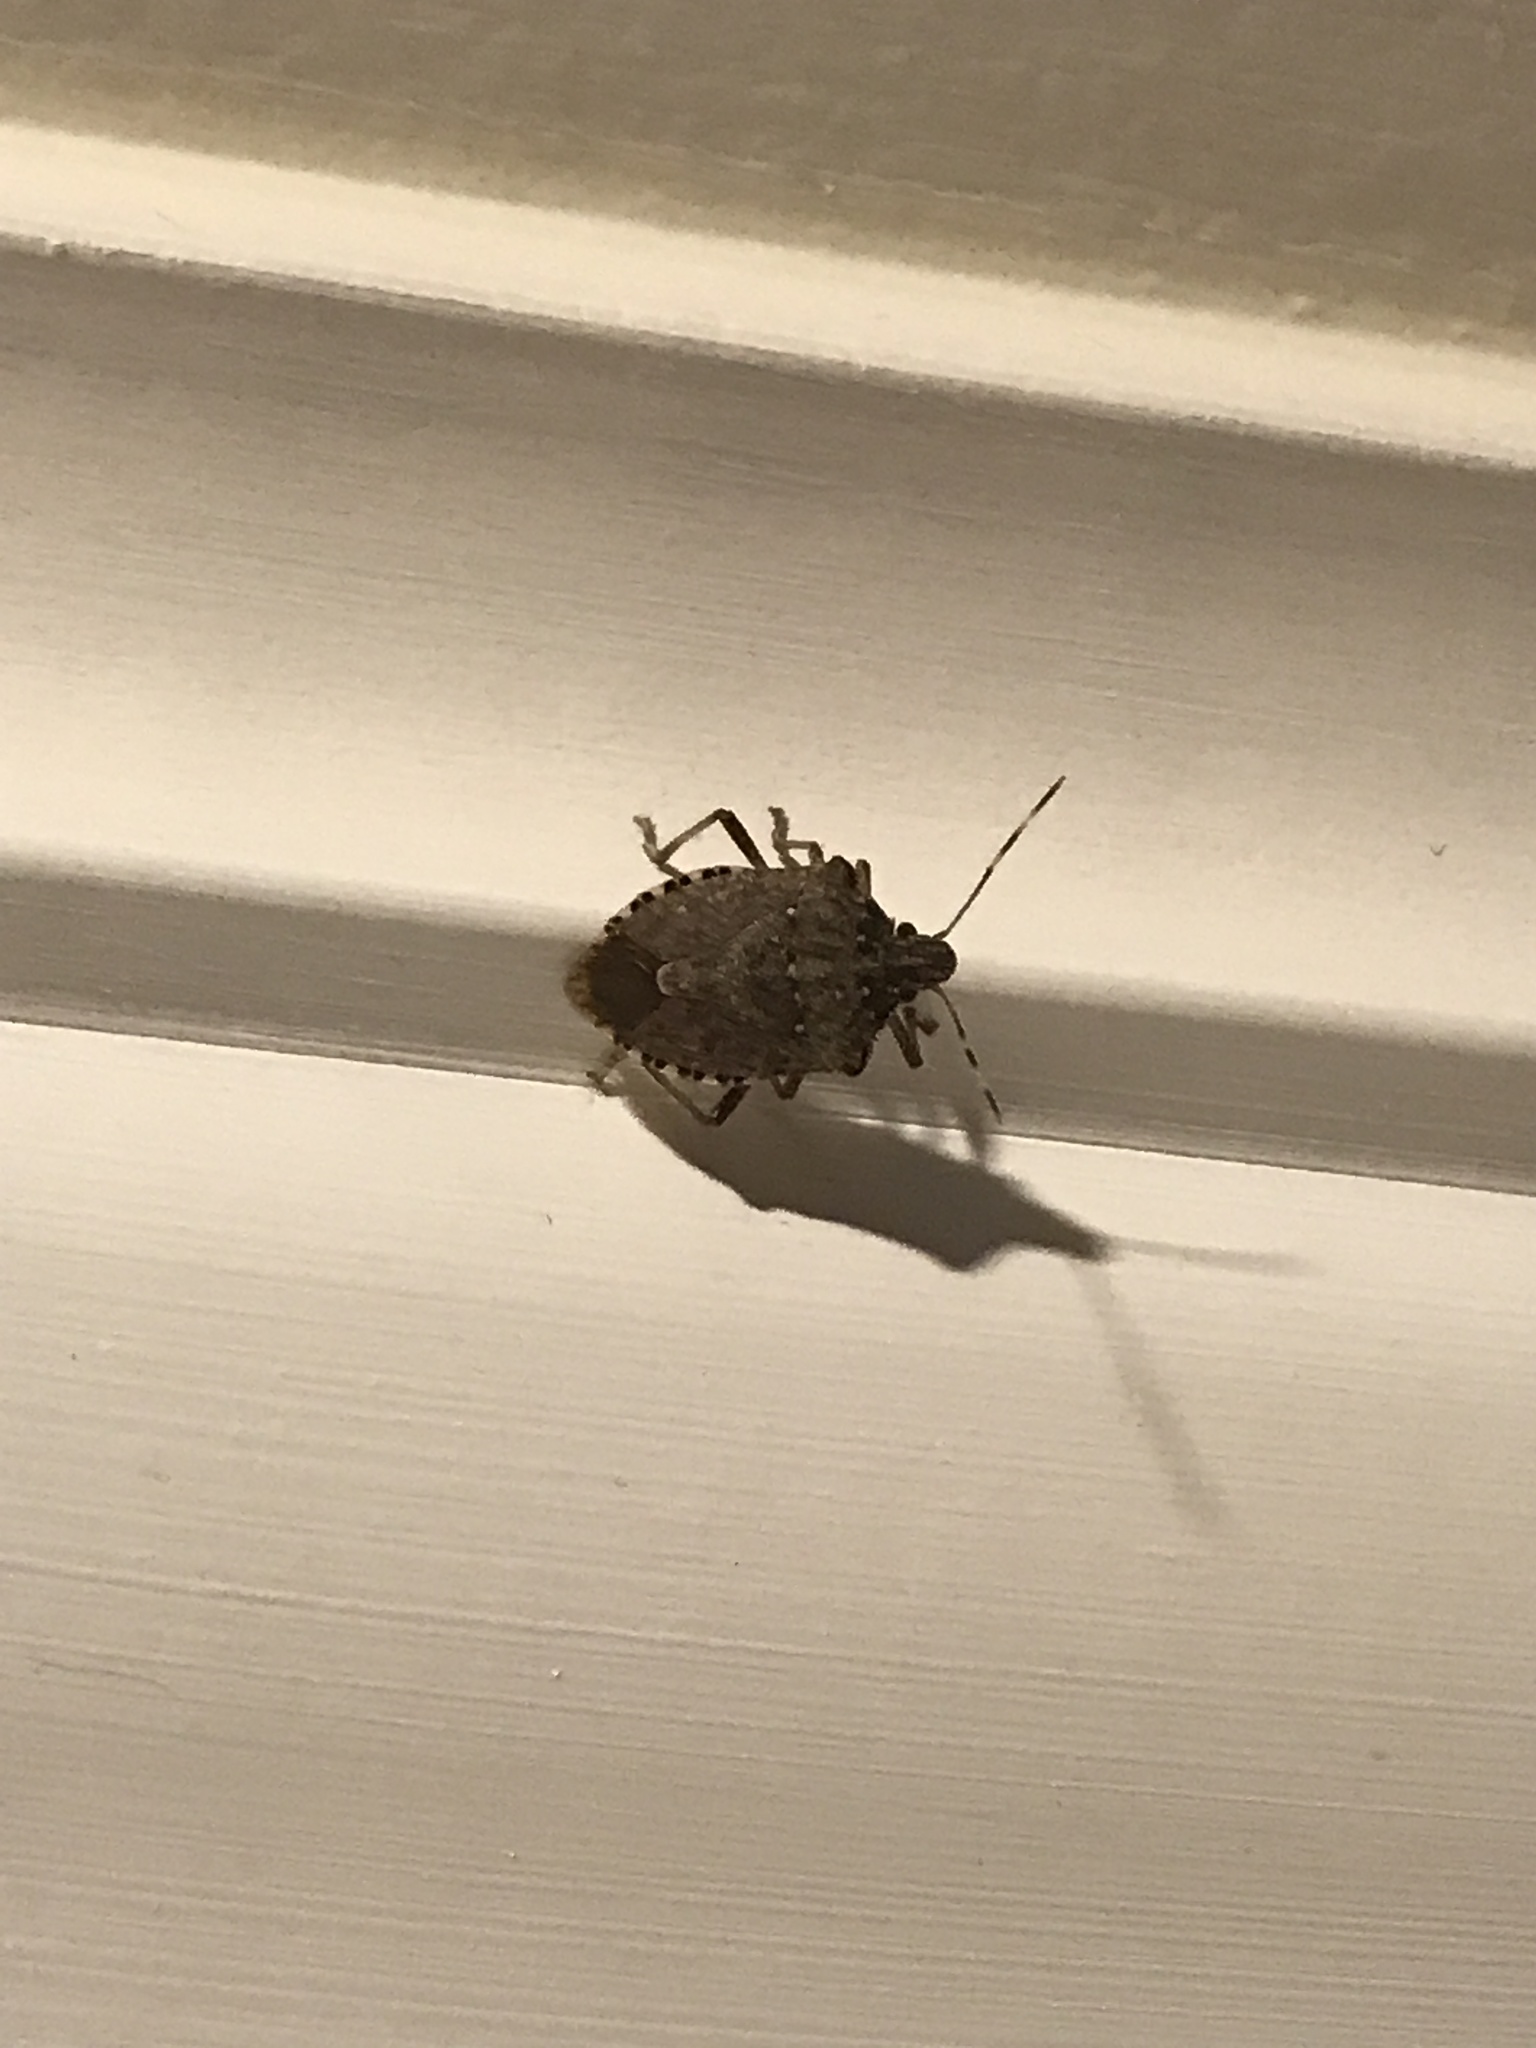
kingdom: Animalia
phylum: Arthropoda
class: Insecta
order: Hemiptera
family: Pentatomidae
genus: Halyomorpha
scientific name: Halyomorpha halys
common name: Brown marmorated stink bug
